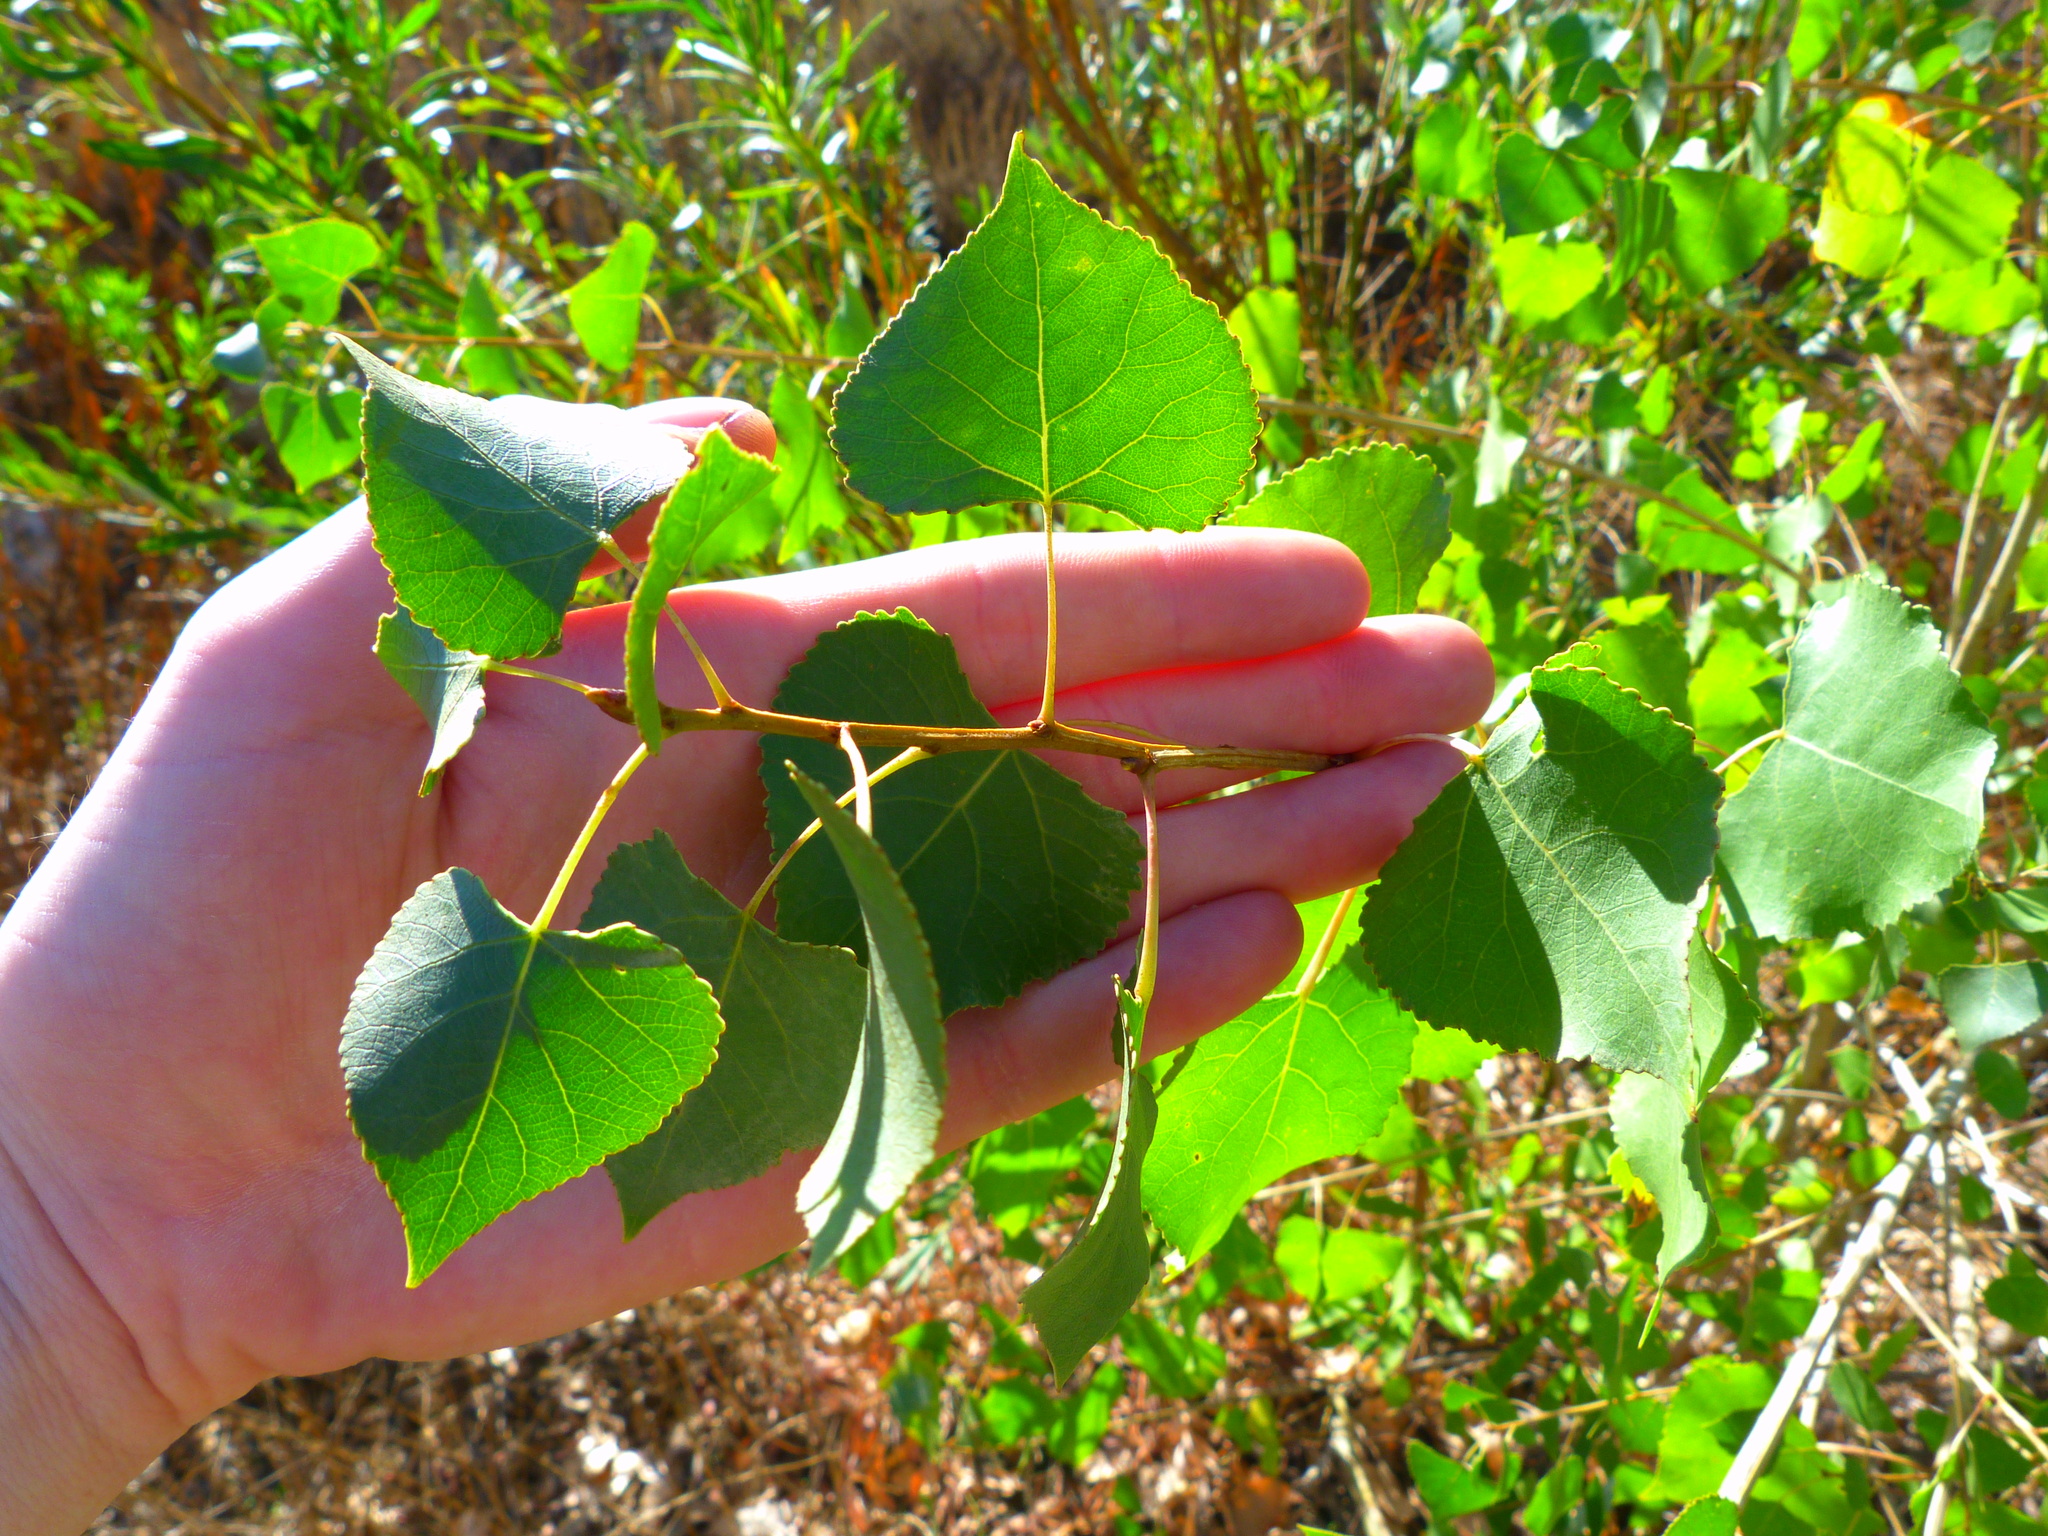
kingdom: Plantae
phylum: Tracheophyta
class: Magnoliopsida
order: Malpighiales
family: Salicaceae
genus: Populus
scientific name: Populus fremontii
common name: Fremont's cottonwood
